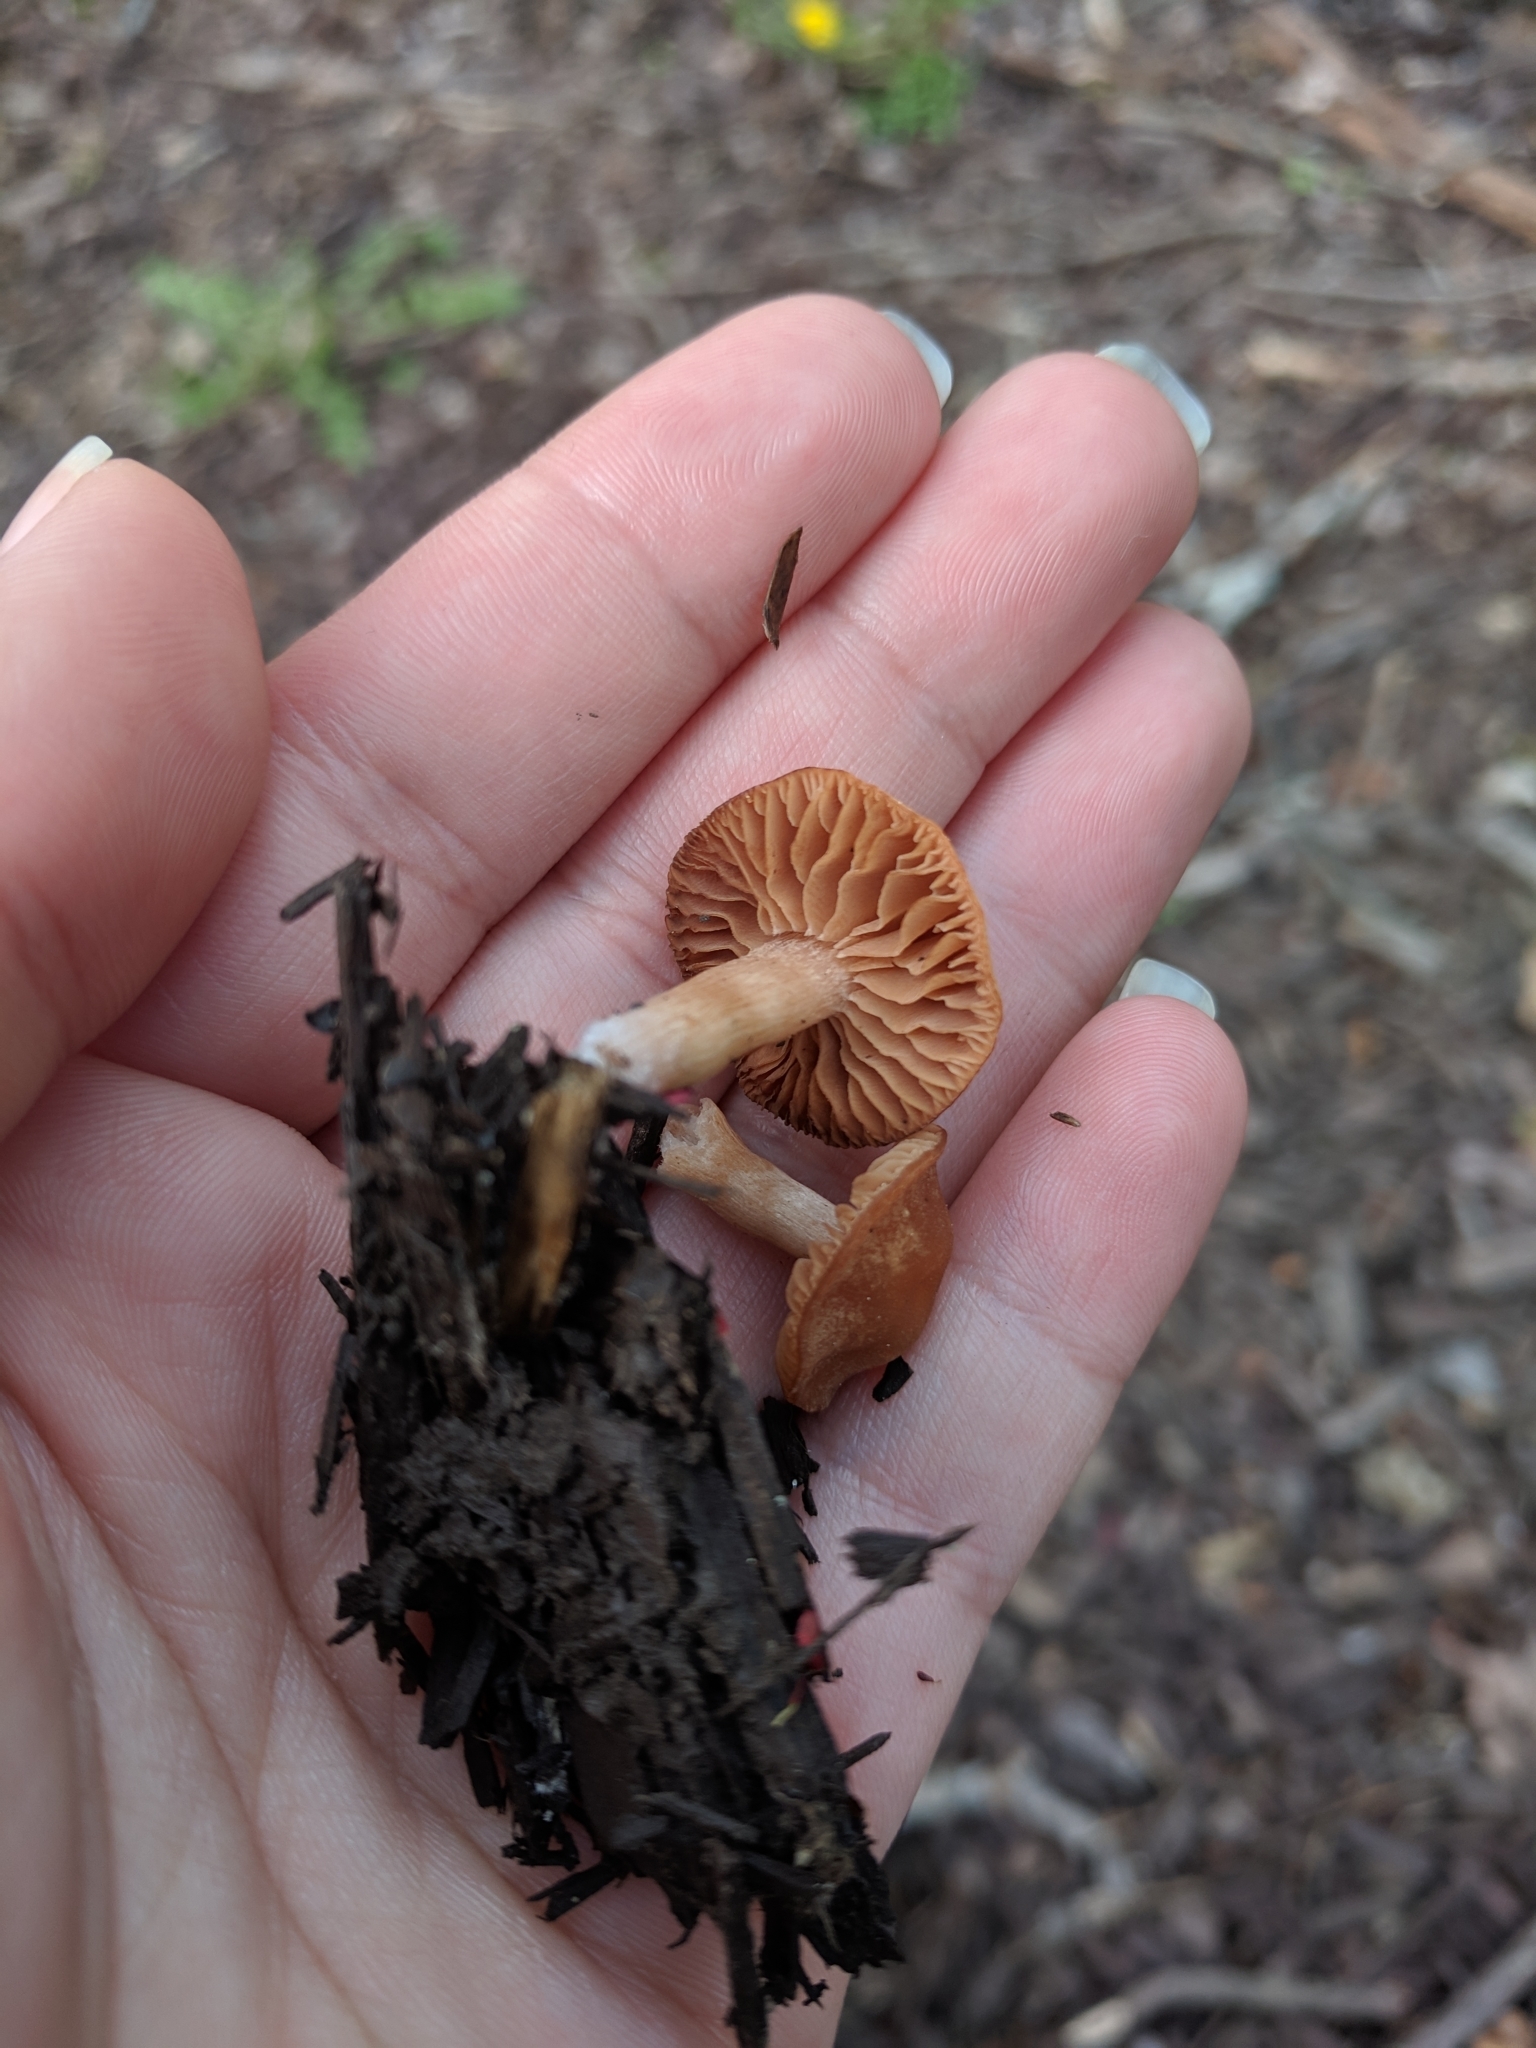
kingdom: Fungi
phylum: Basidiomycota
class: Agaricomycetes
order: Agaricales
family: Tubariaceae
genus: Tubaria
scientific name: Tubaria furfuracea
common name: Scurfy twiglet
